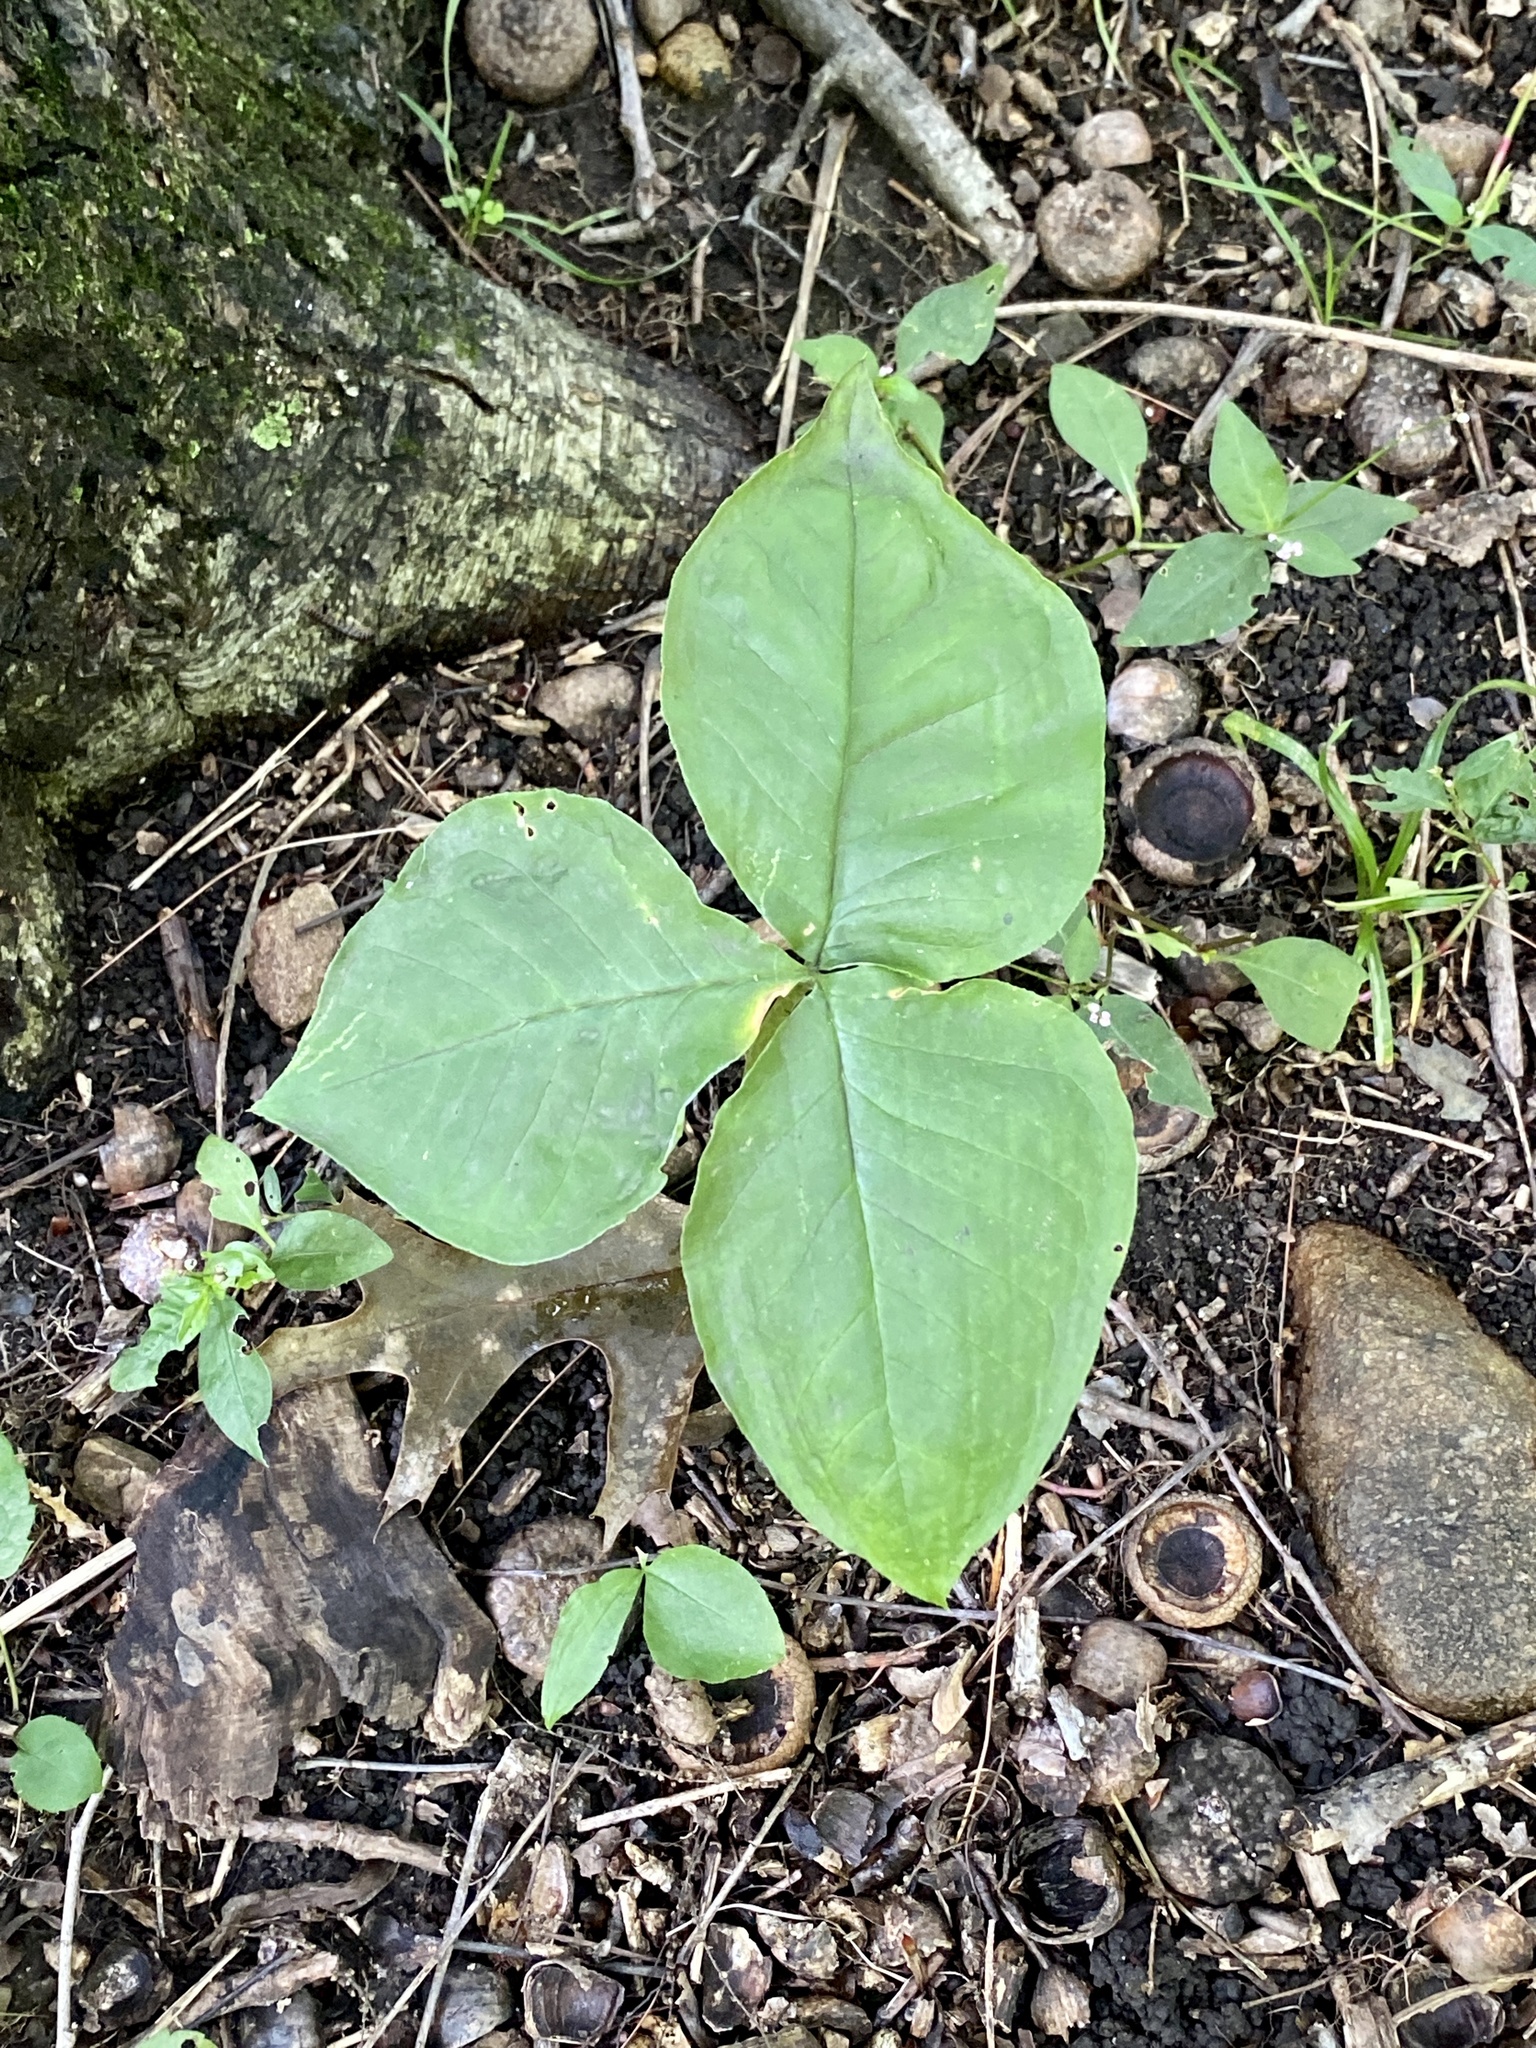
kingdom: Plantae
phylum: Tracheophyta
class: Liliopsida
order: Alismatales
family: Araceae
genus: Arisaema
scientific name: Arisaema triphyllum
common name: Jack-in-the-pulpit
